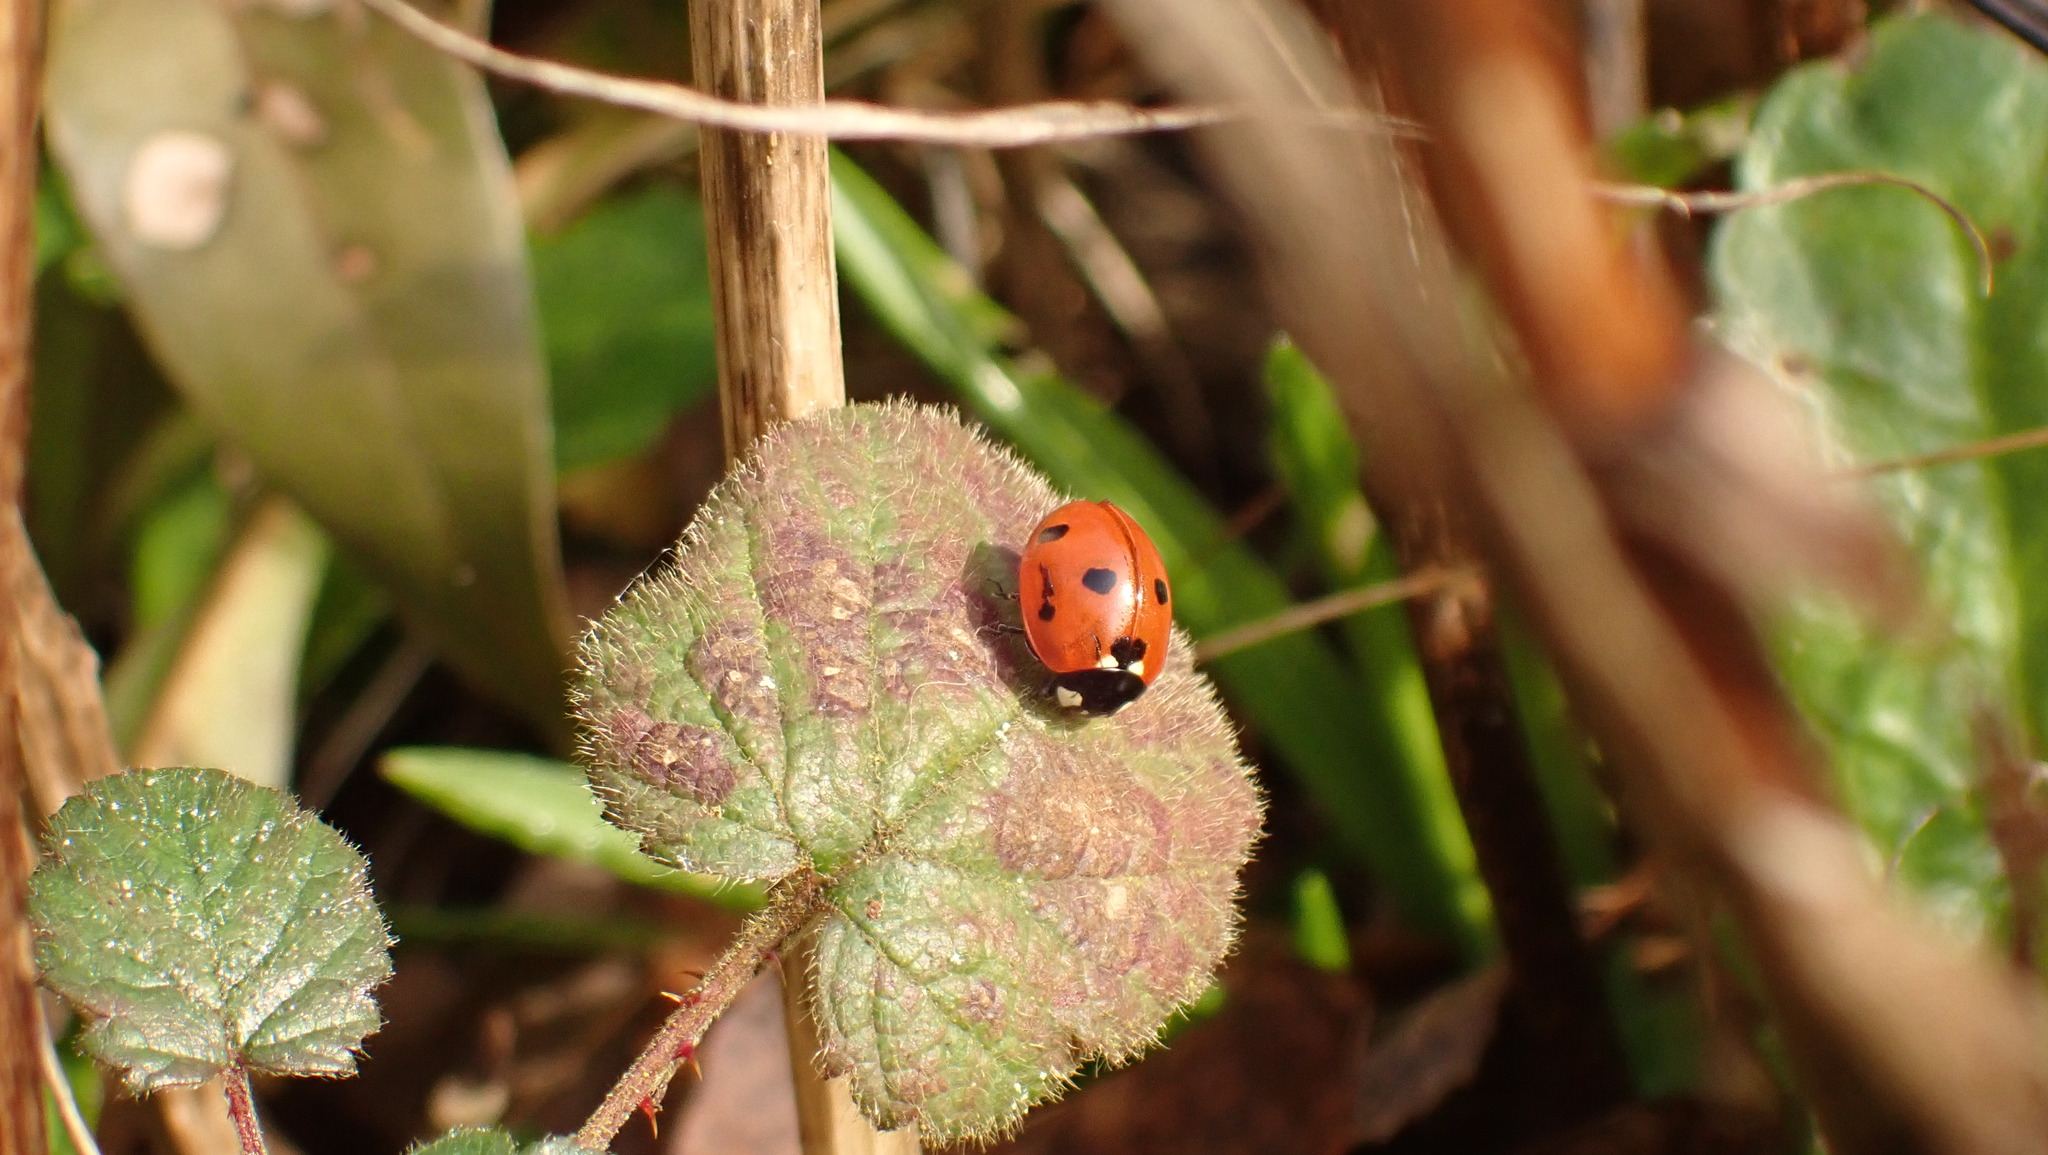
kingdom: Animalia
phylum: Arthropoda
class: Insecta
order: Coleoptera
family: Coccinellidae
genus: Coccinella
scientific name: Coccinella septempunctata
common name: Sevenspotted lady beetle
